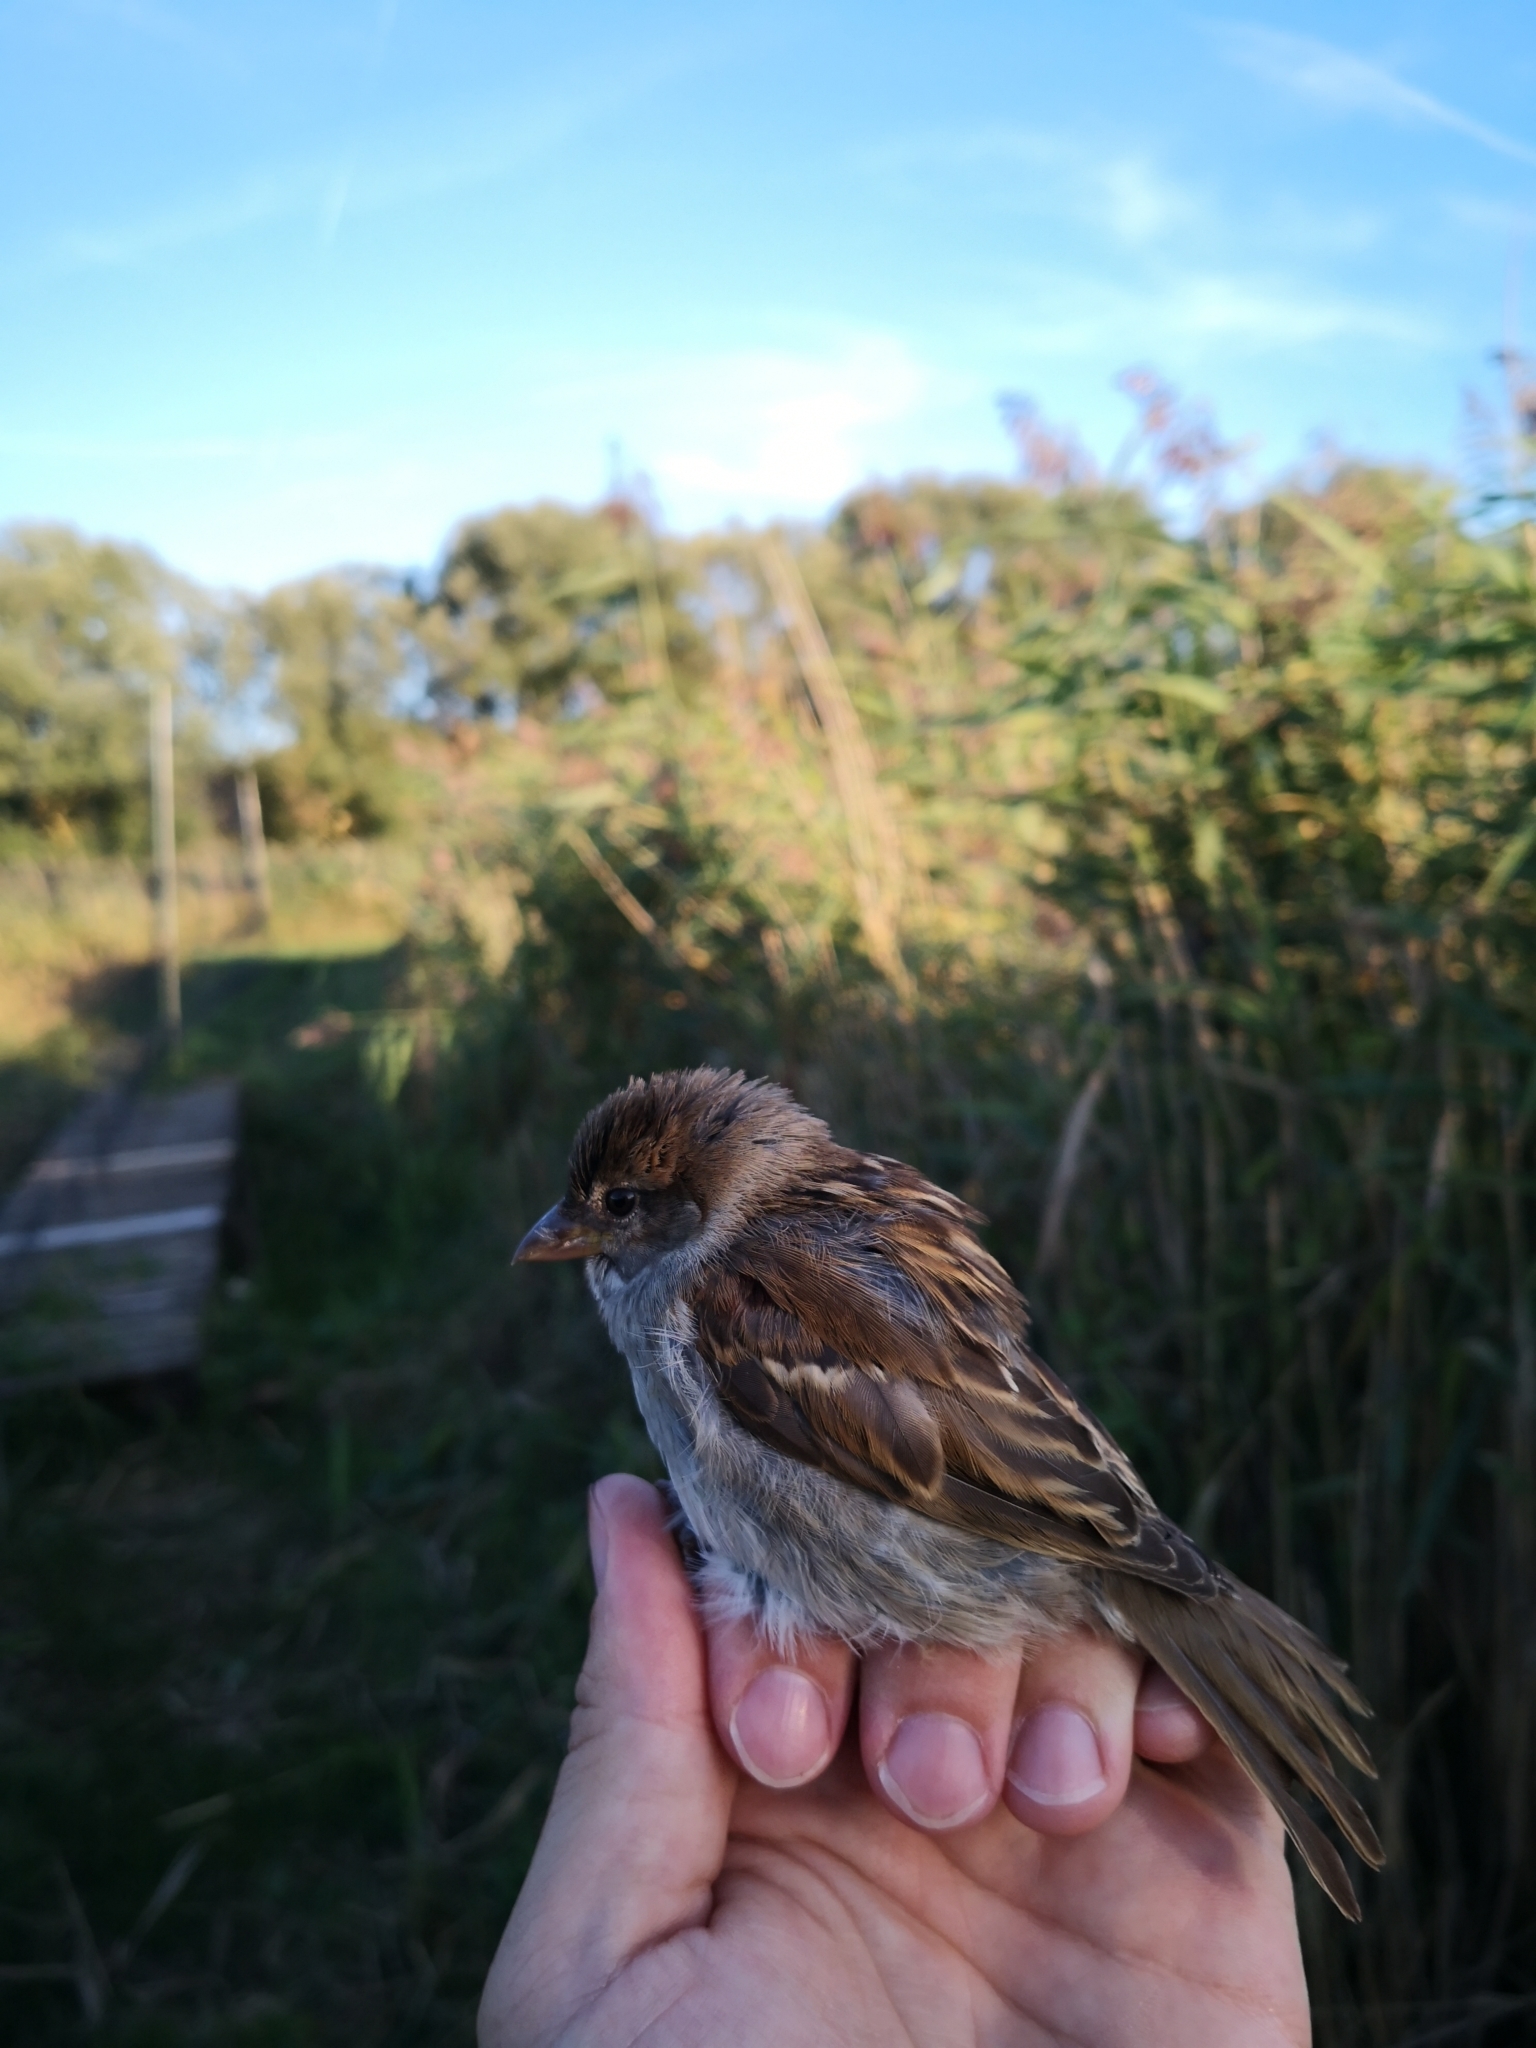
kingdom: Animalia
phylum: Chordata
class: Aves
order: Passeriformes
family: Passeridae
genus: Passer
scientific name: Passer domesticus
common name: House sparrow
